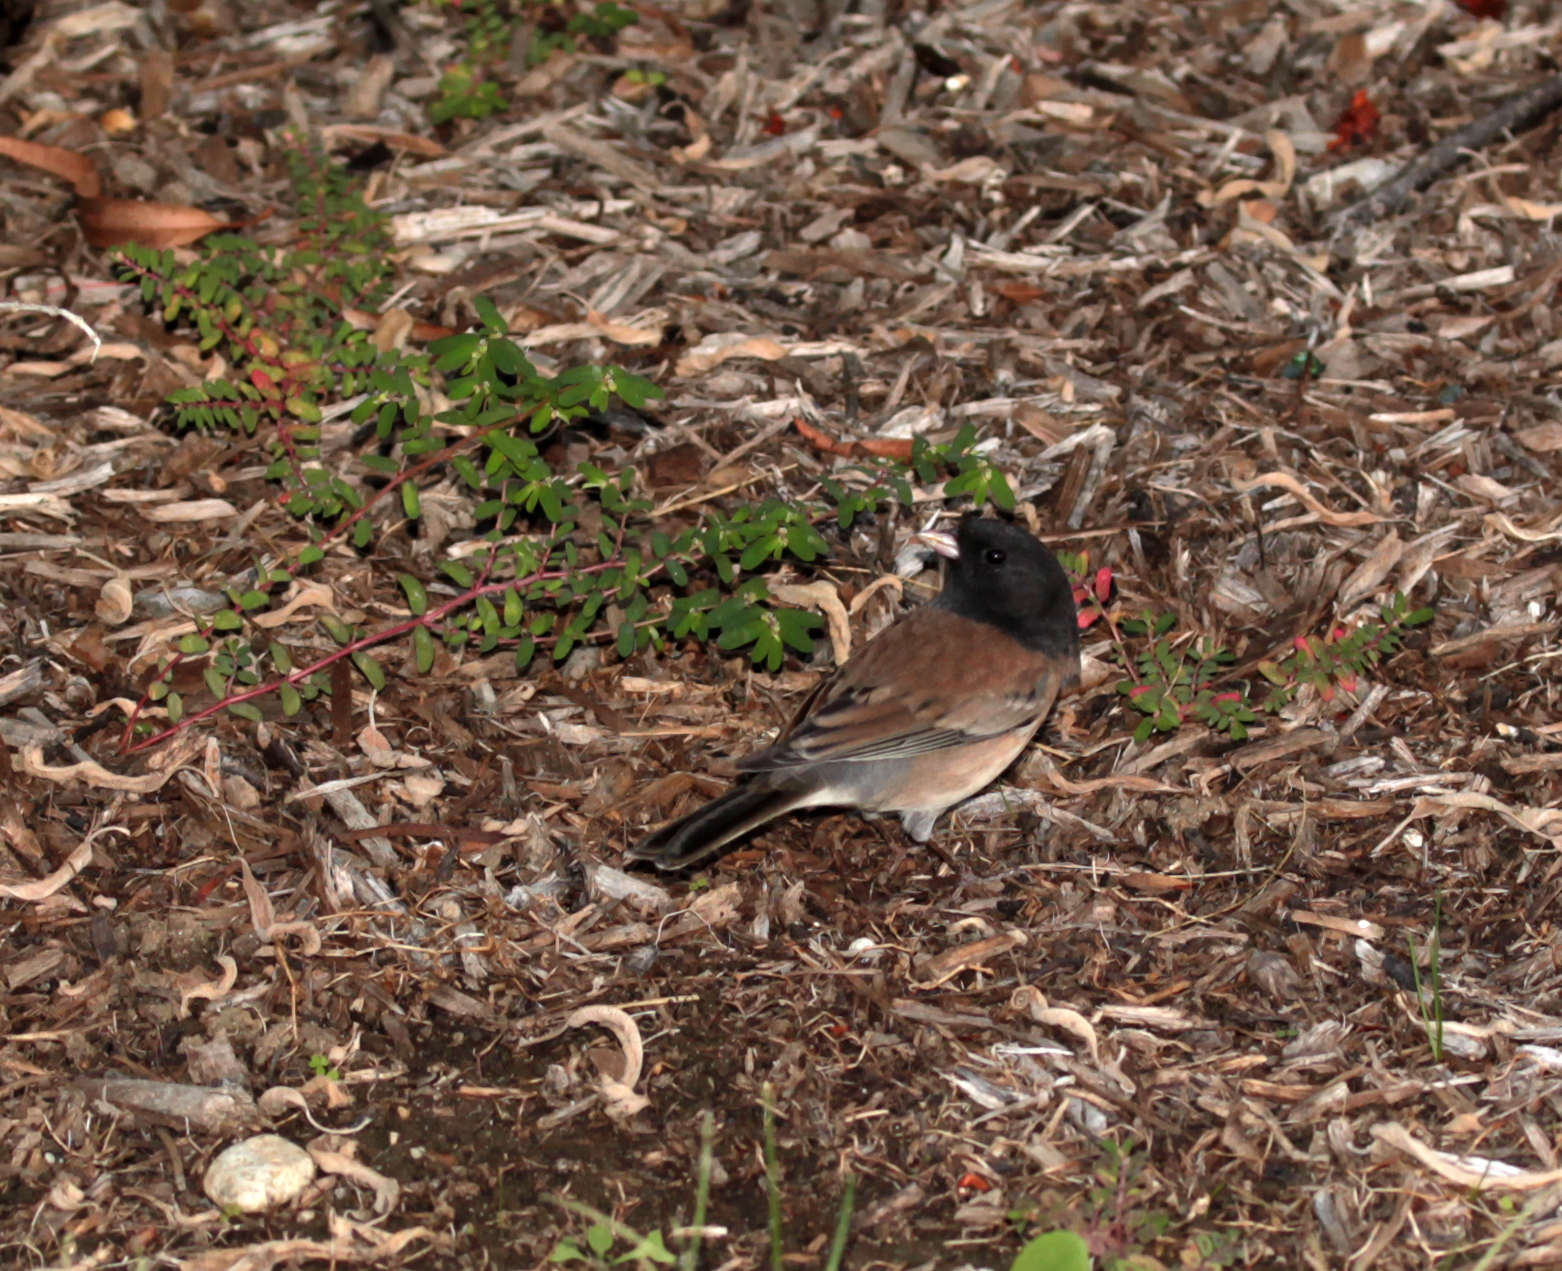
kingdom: Animalia
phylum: Chordata
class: Aves
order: Passeriformes
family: Passerellidae
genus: Junco
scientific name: Junco hyemalis
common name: Dark-eyed junco
